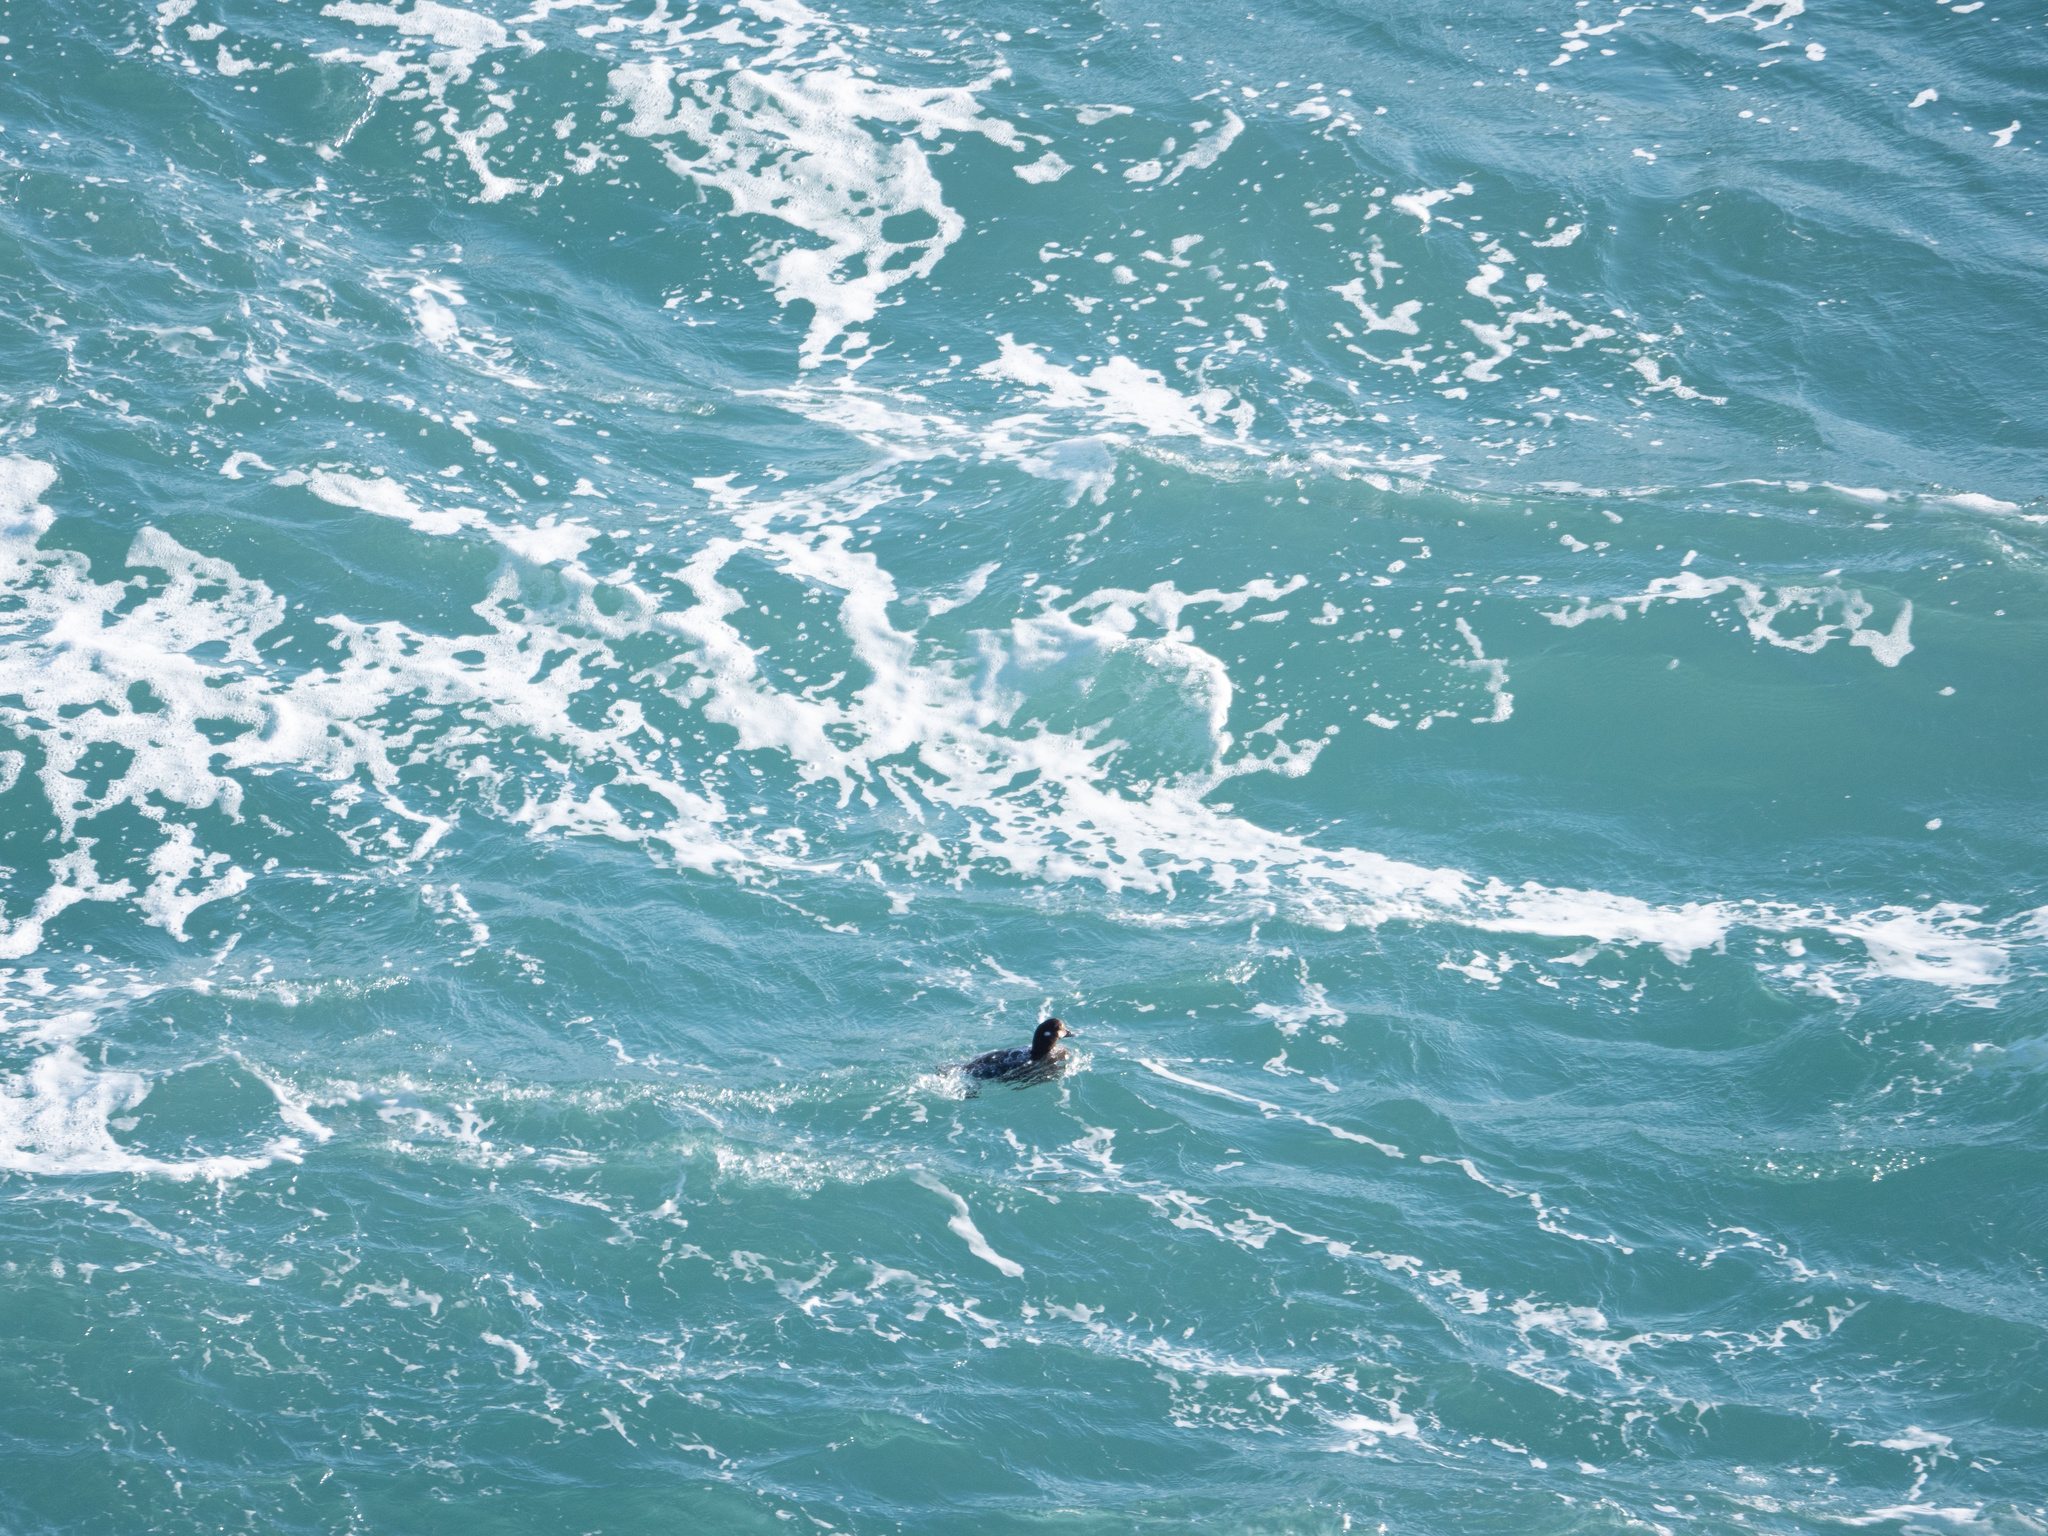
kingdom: Animalia
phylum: Chordata
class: Aves
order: Anseriformes
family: Anatidae
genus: Histrionicus
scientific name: Histrionicus histrionicus
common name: Harlequin duck
